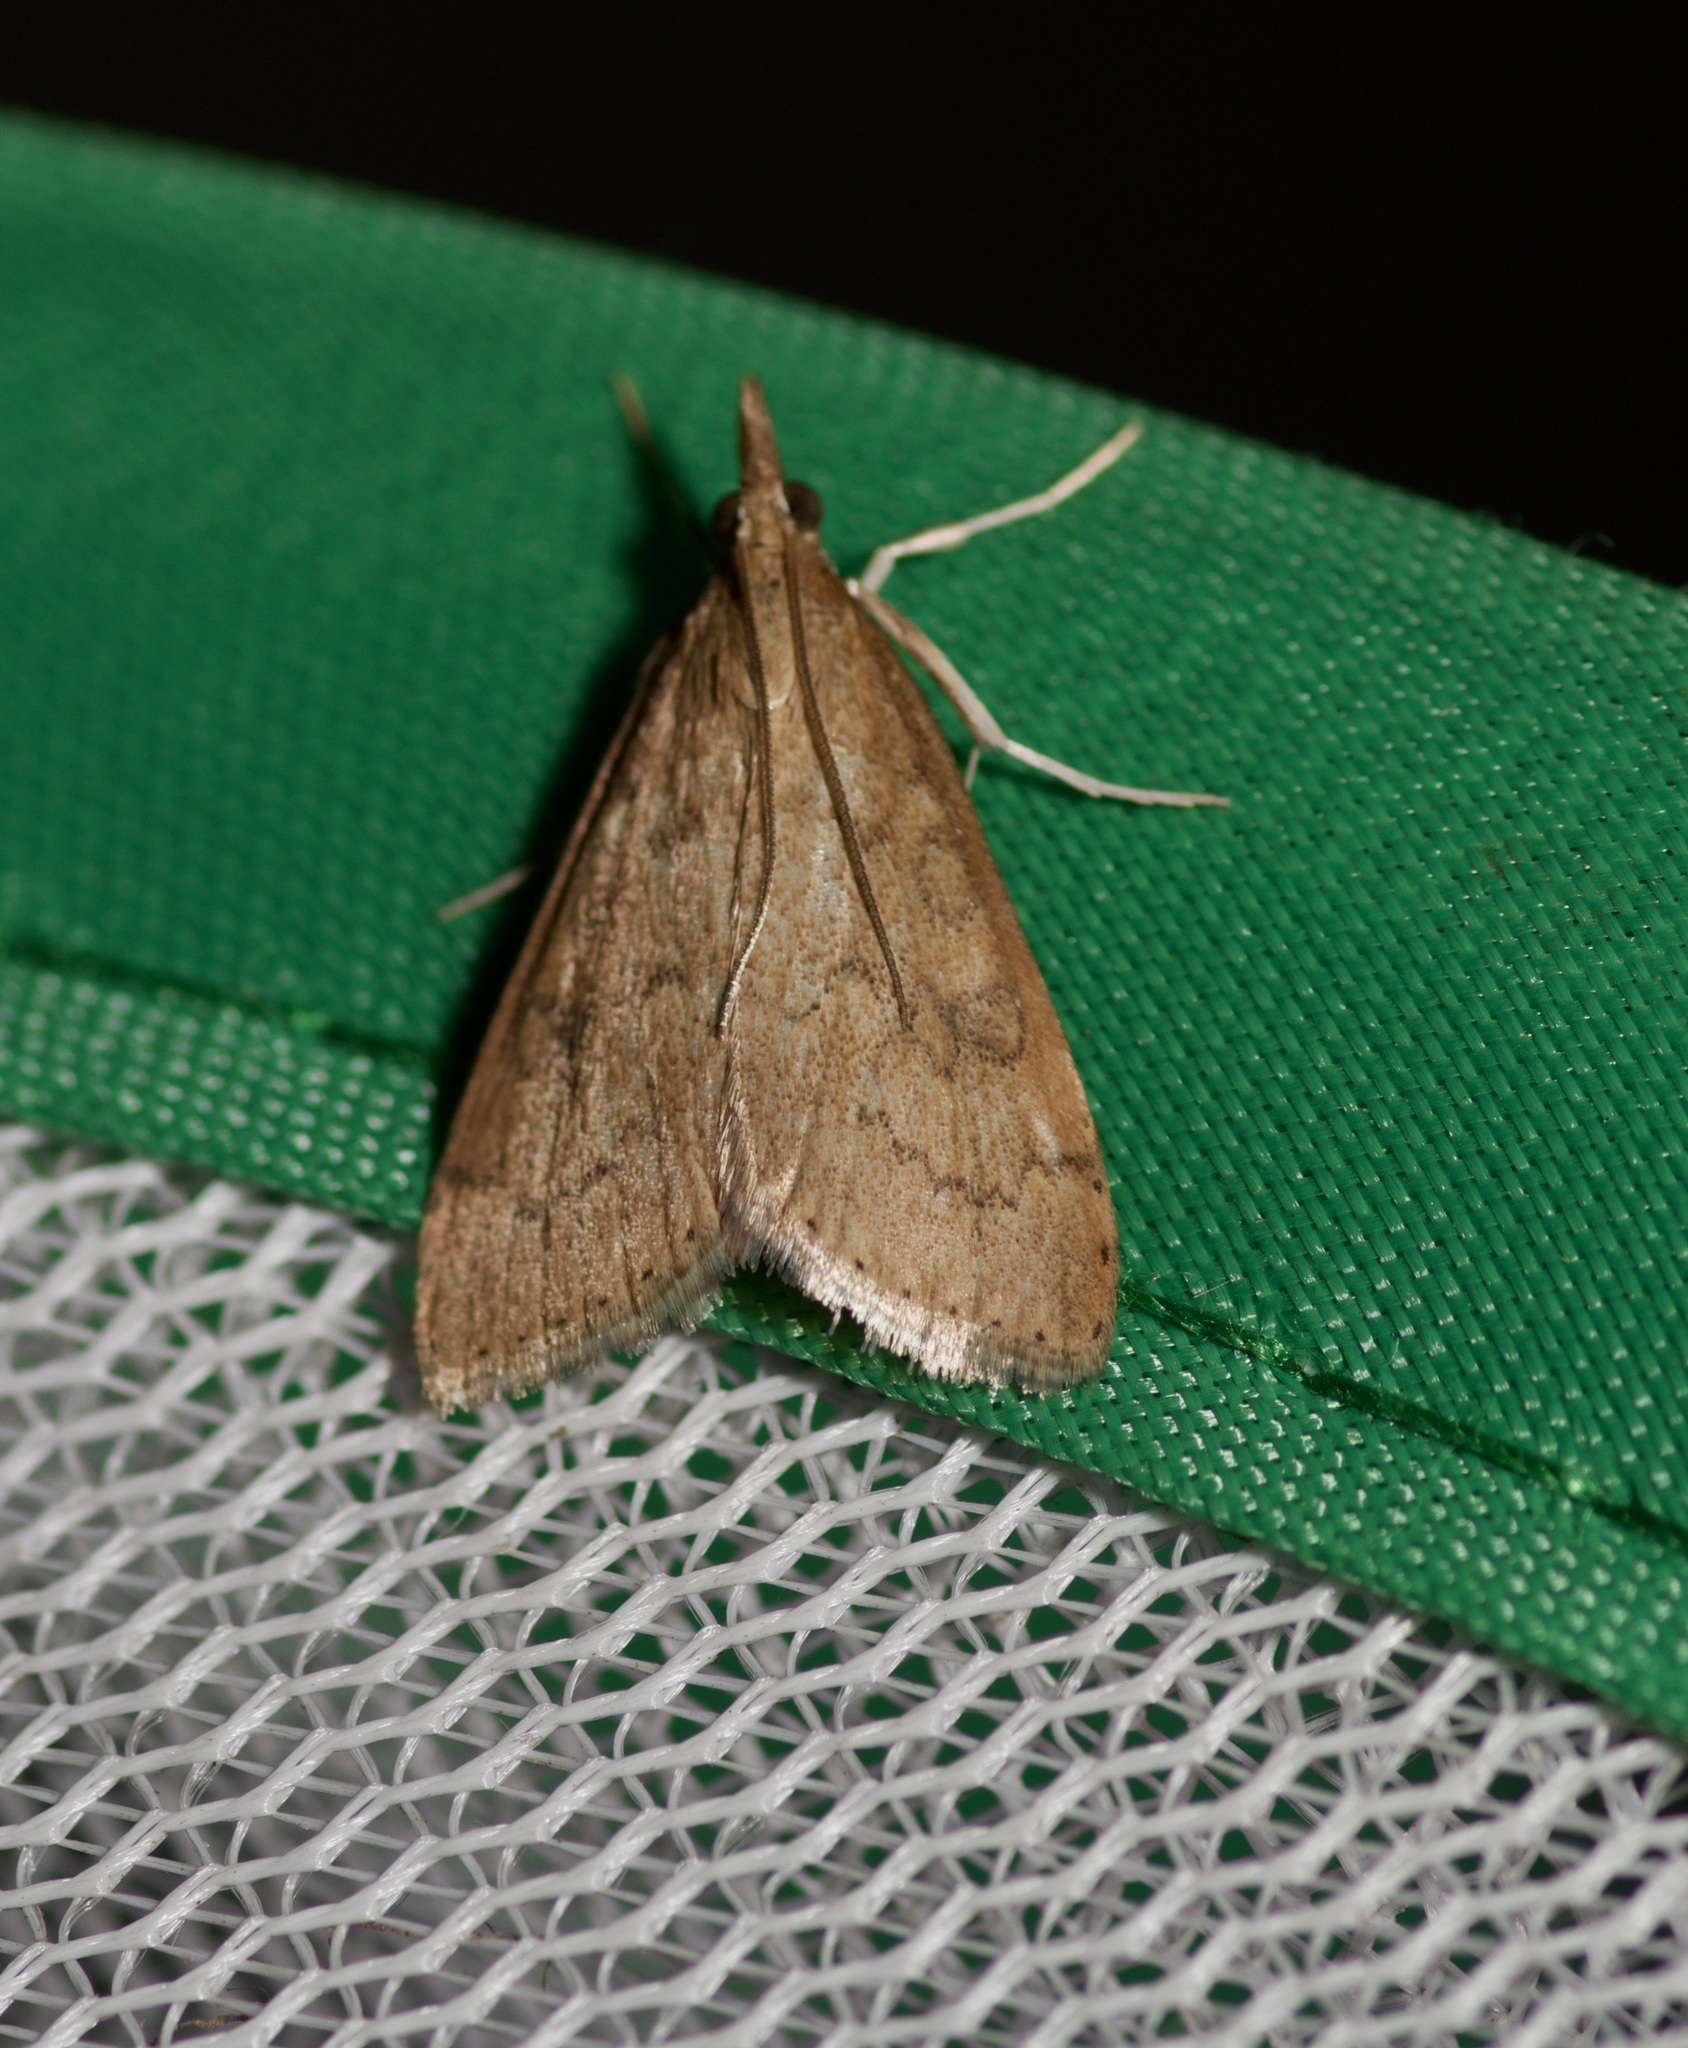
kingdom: Animalia
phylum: Arthropoda
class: Insecta
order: Lepidoptera
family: Crambidae
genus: Udea
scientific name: Udea rubigalis
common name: Celery leaftier moth
